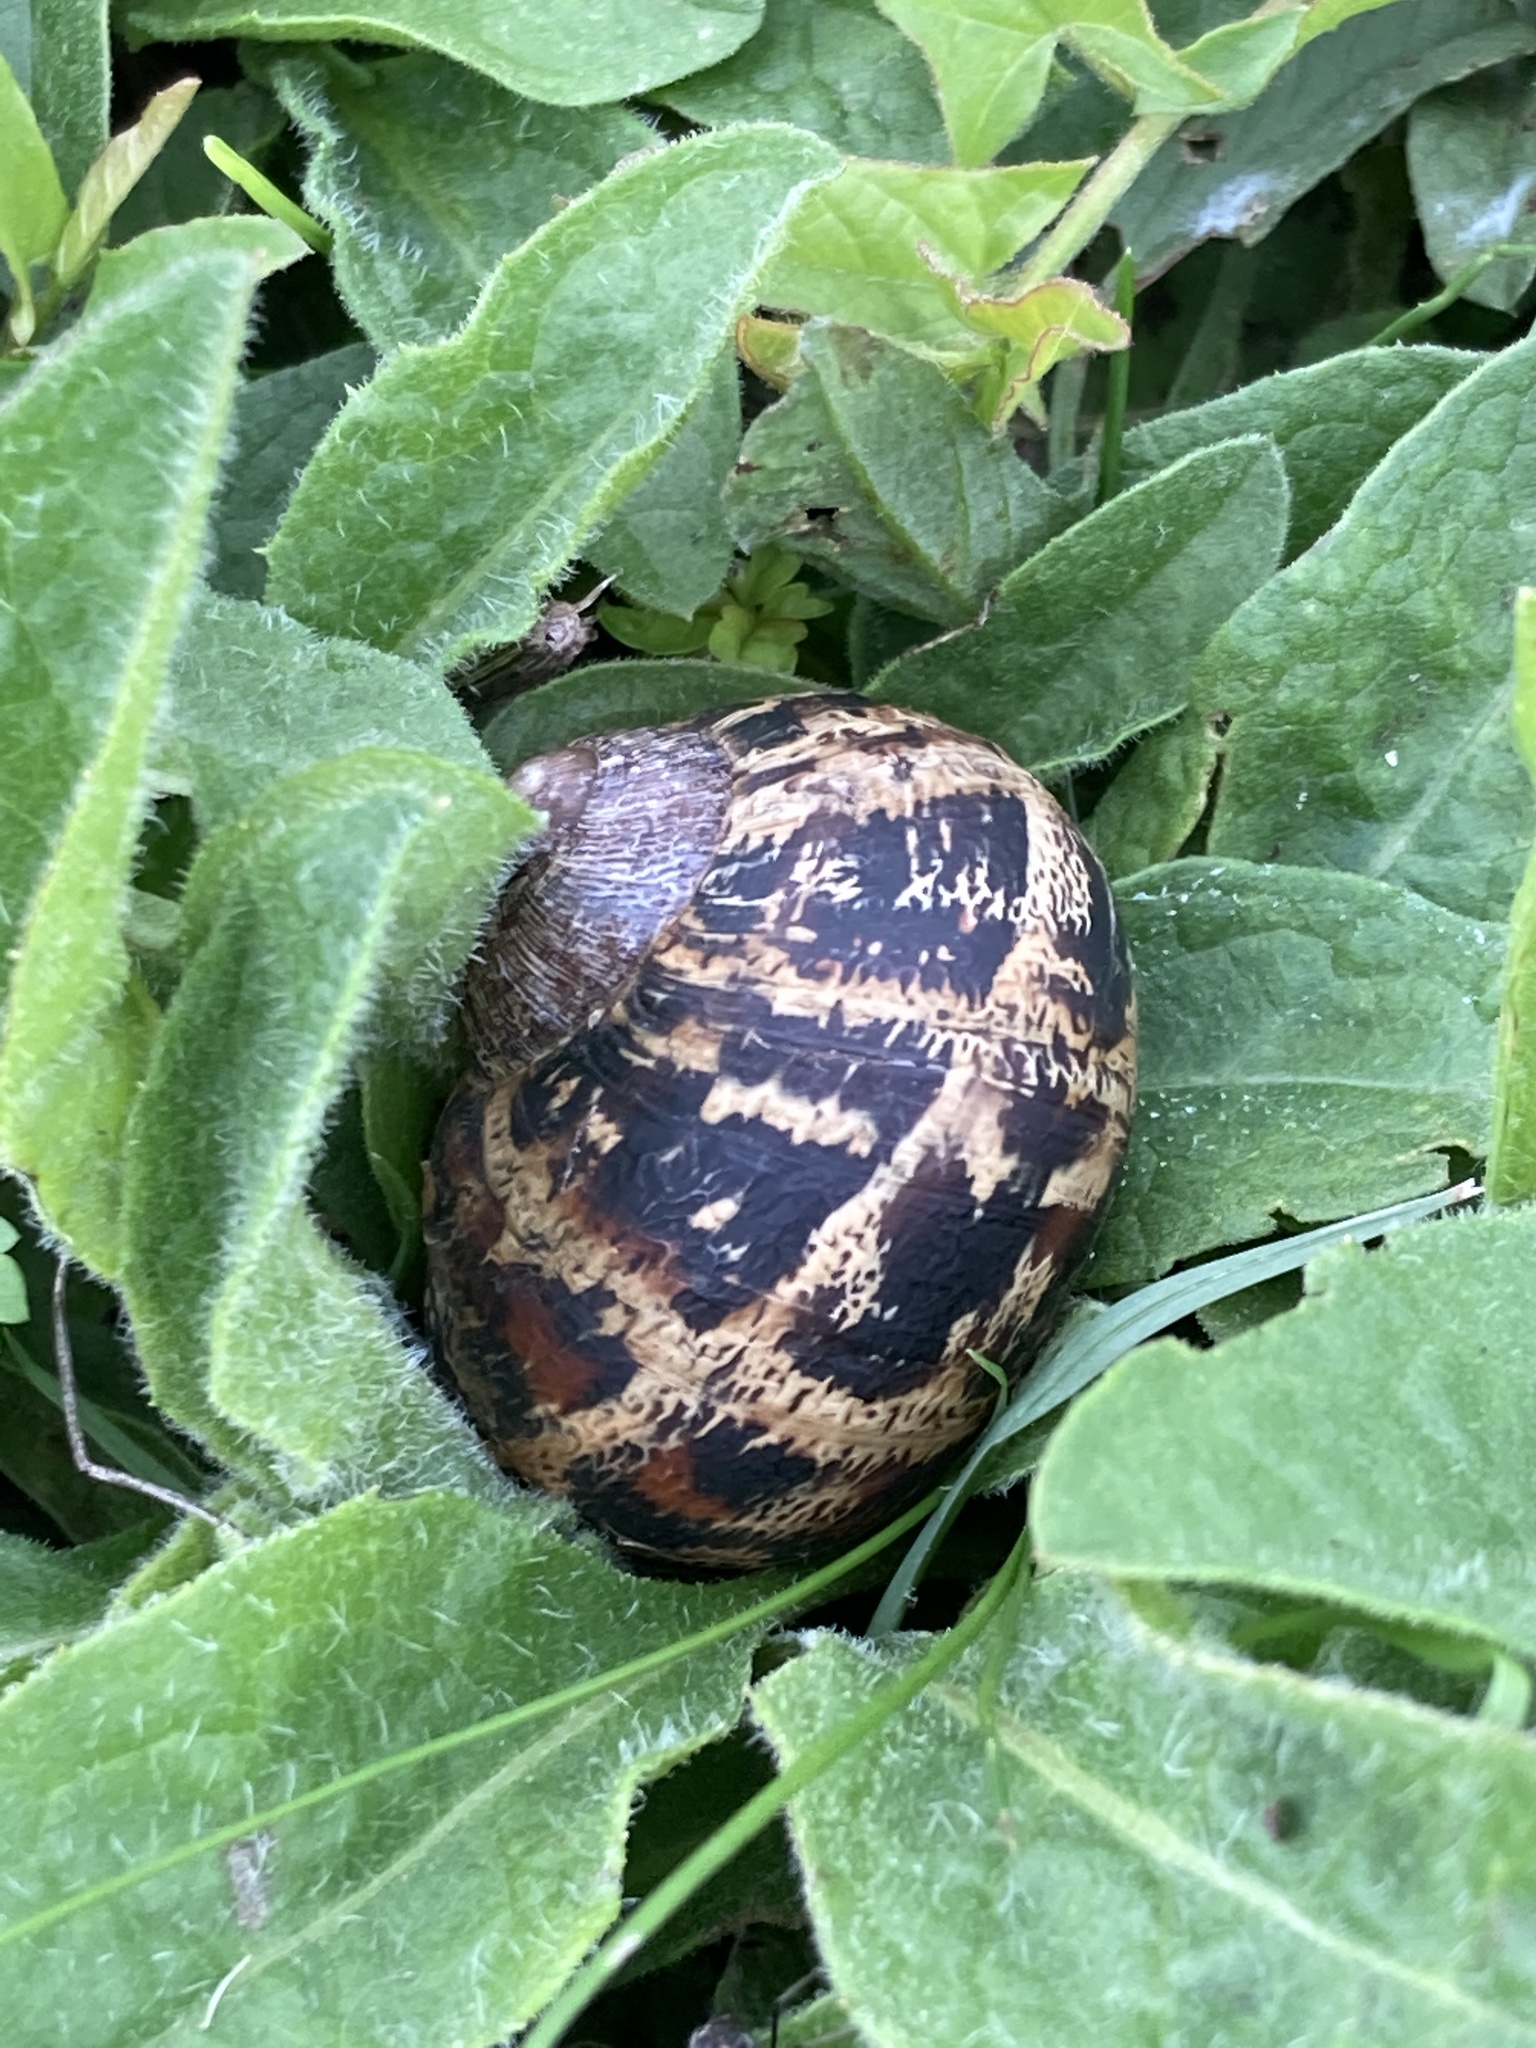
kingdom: Animalia
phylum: Mollusca
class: Gastropoda
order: Stylommatophora
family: Helicidae
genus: Cornu
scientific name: Cornu aspersum
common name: Brown garden snail
